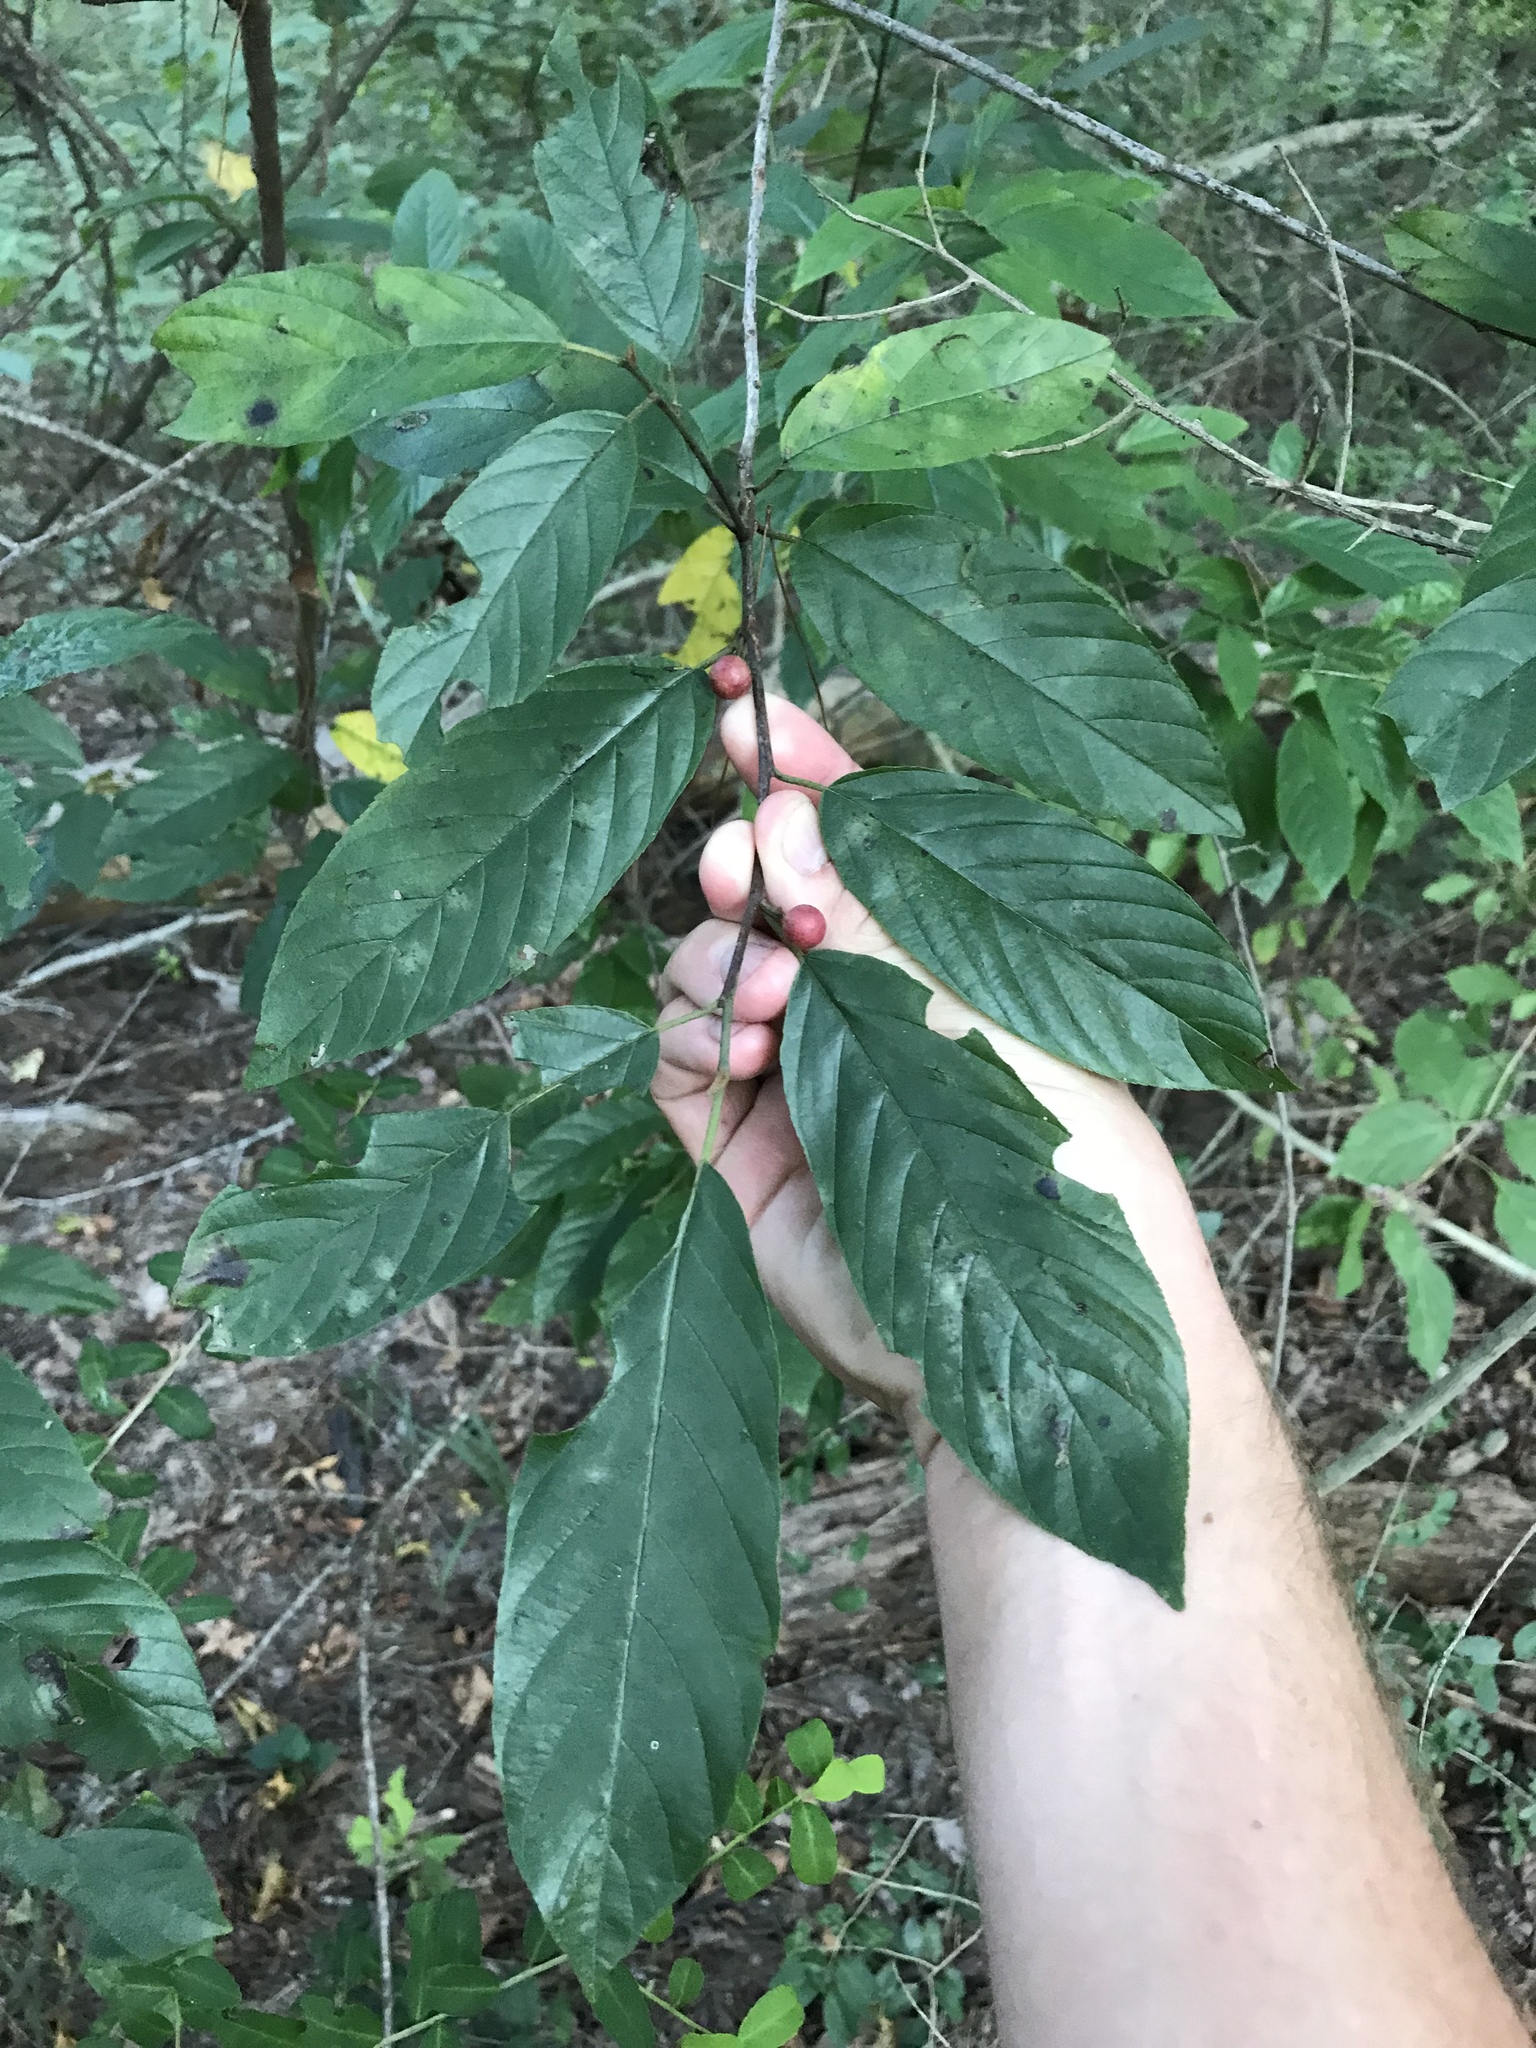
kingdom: Plantae
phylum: Tracheophyta
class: Magnoliopsida
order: Rosales
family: Rhamnaceae
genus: Frangula
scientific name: Frangula caroliniana
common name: Carolina buckthorn
